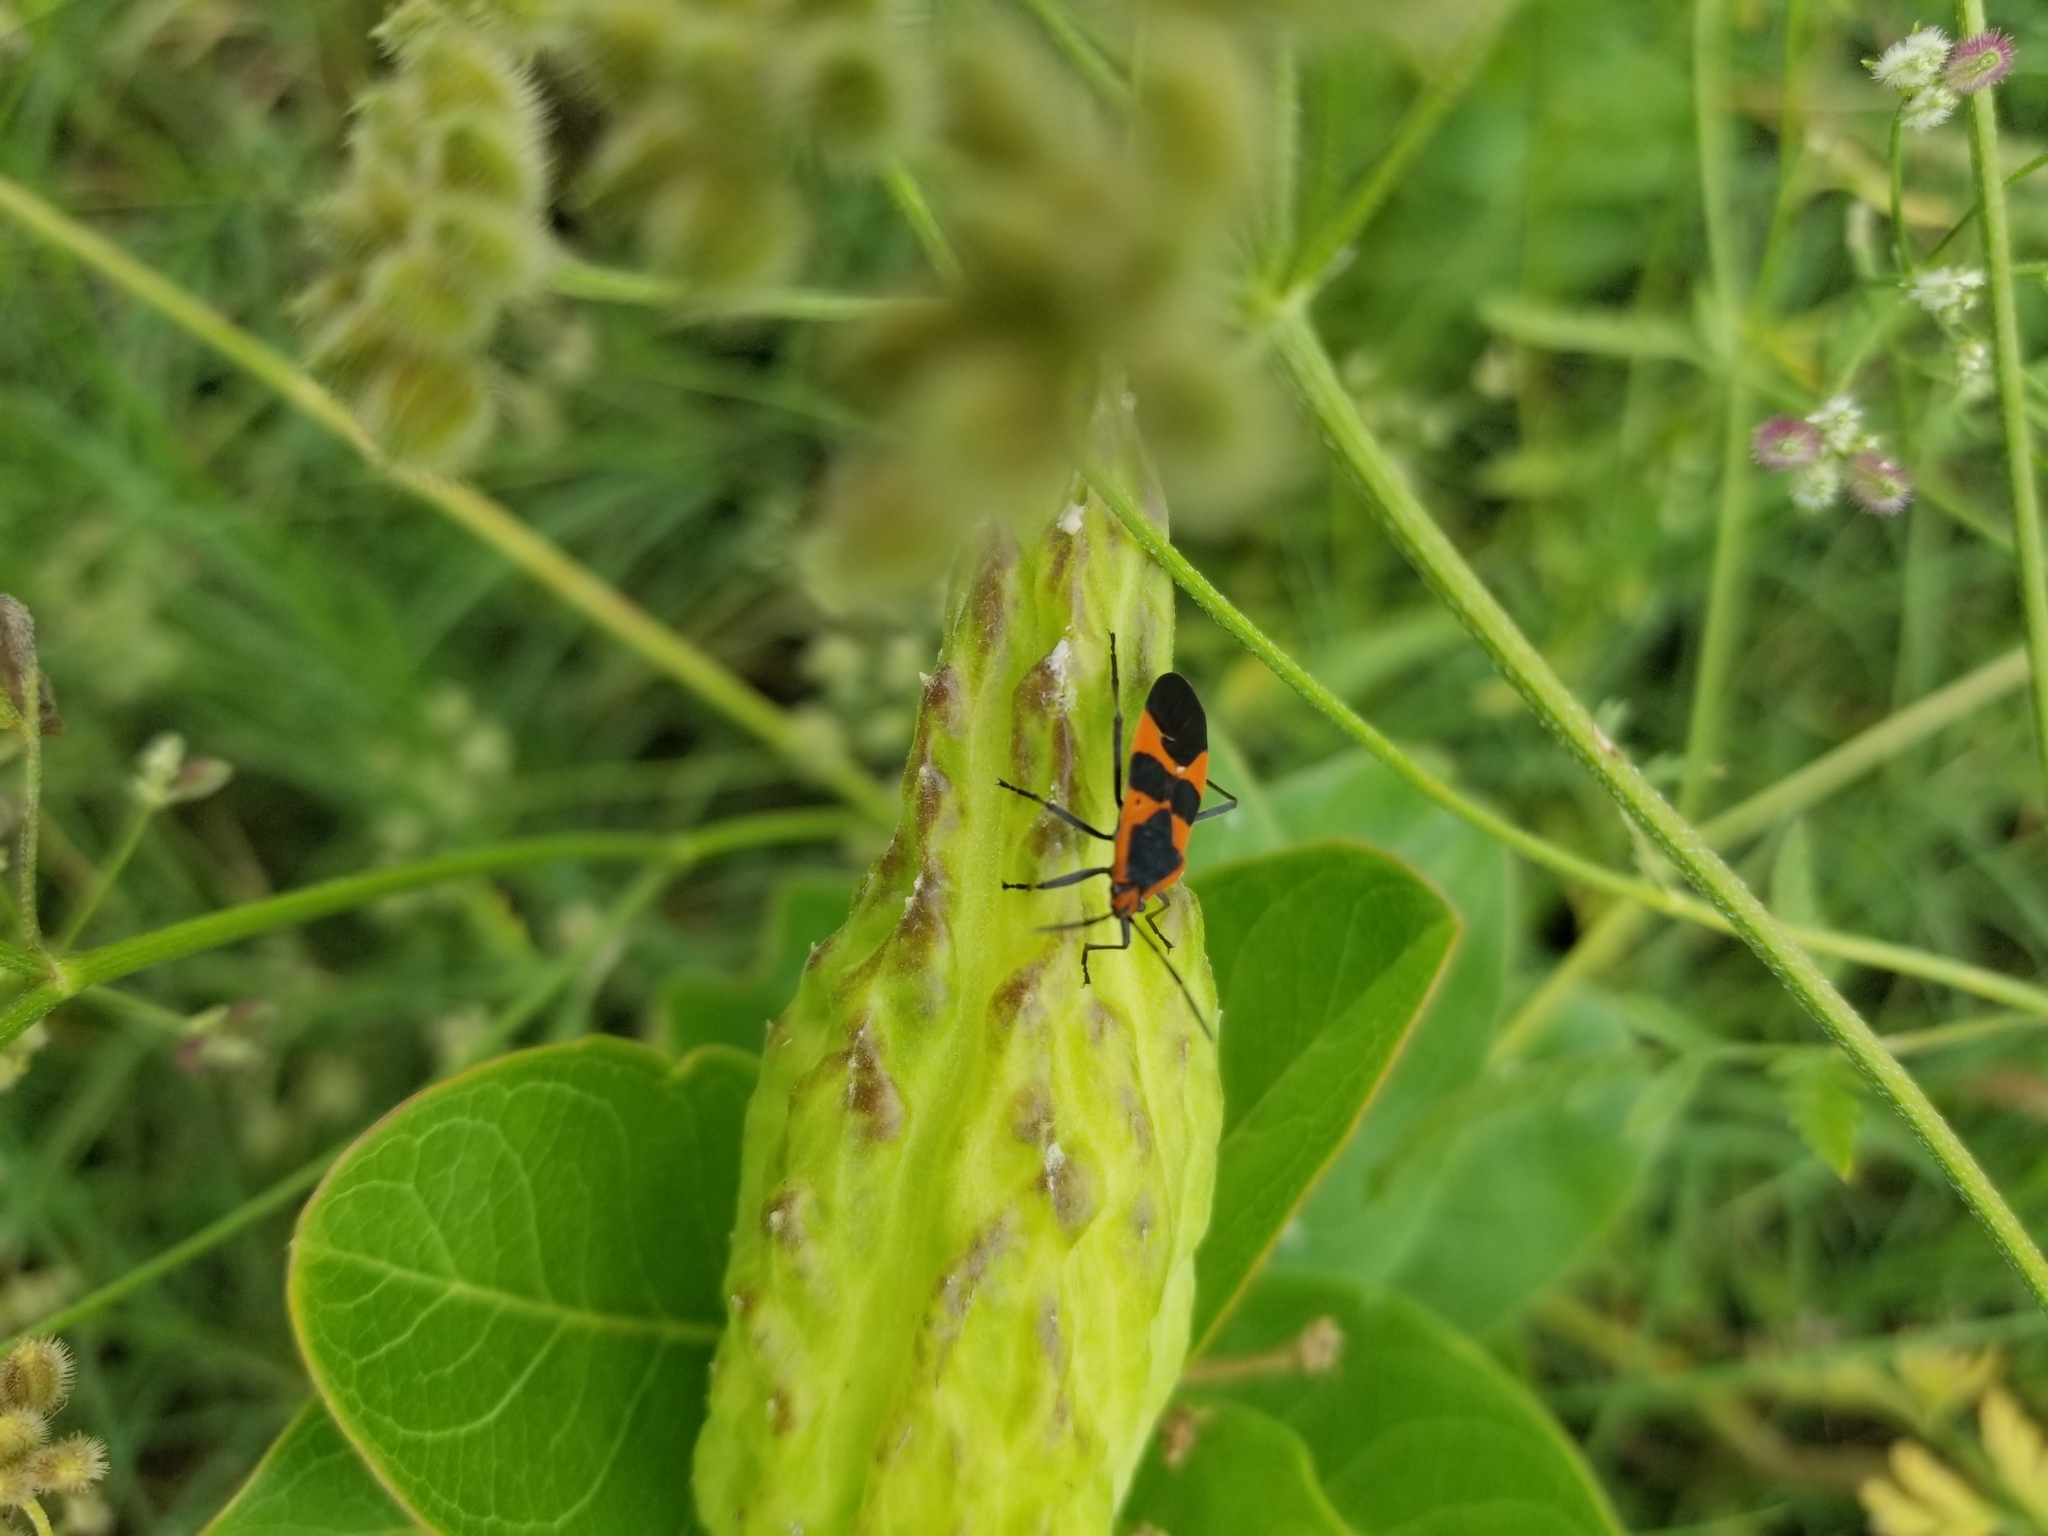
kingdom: Animalia
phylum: Arthropoda
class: Insecta
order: Hemiptera
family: Lygaeidae
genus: Oncopeltus
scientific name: Oncopeltus fasciatus
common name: Large milkweed bug
